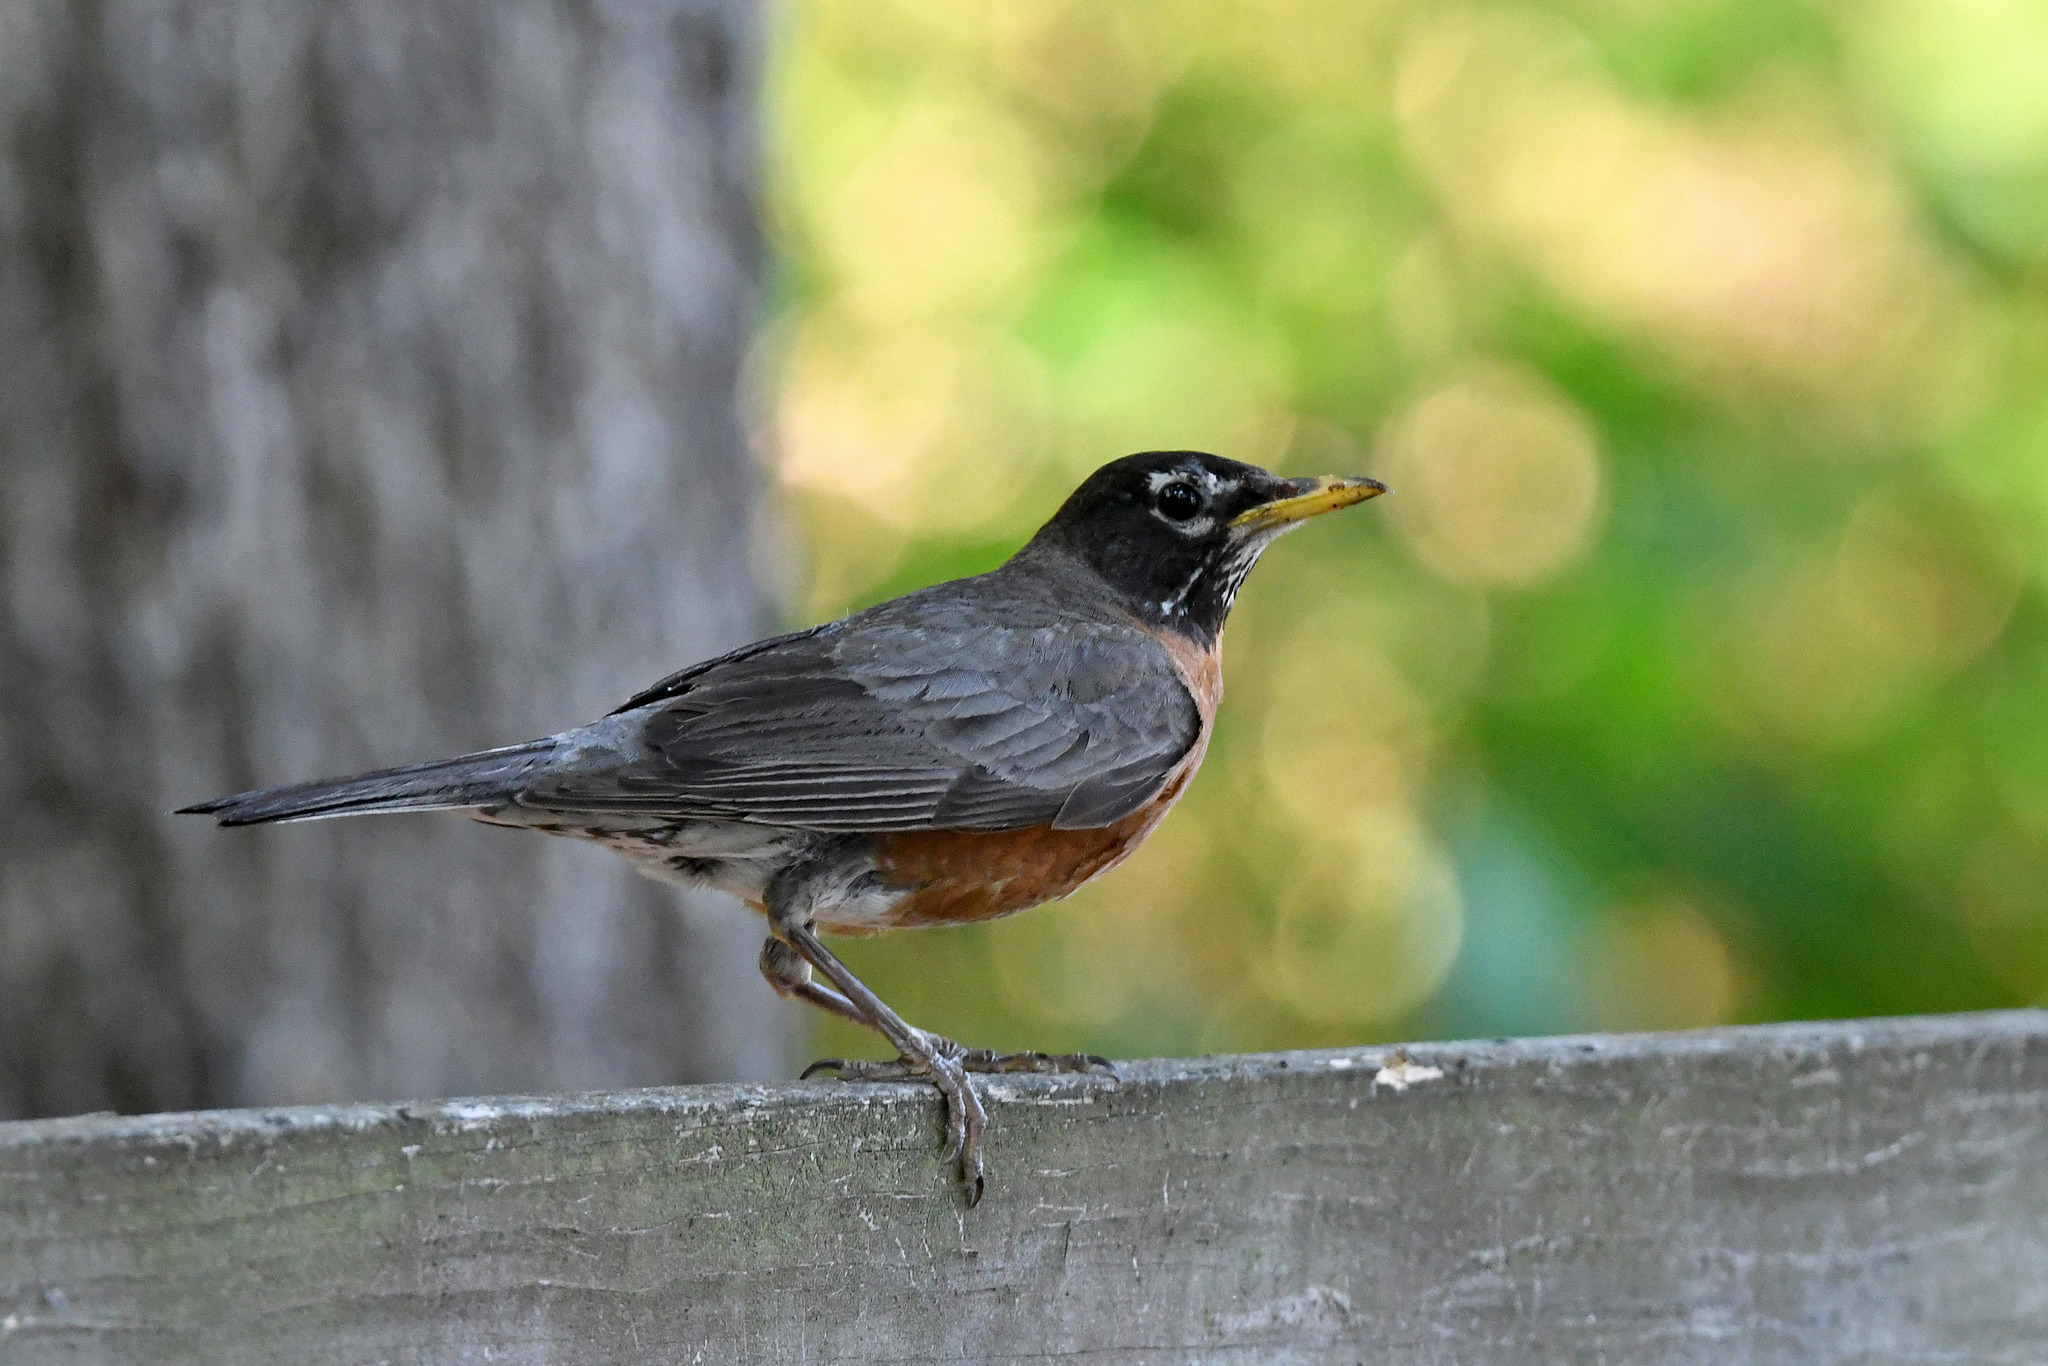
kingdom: Animalia
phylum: Chordata
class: Aves
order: Passeriformes
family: Turdidae
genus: Turdus
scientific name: Turdus migratorius
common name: American robin
